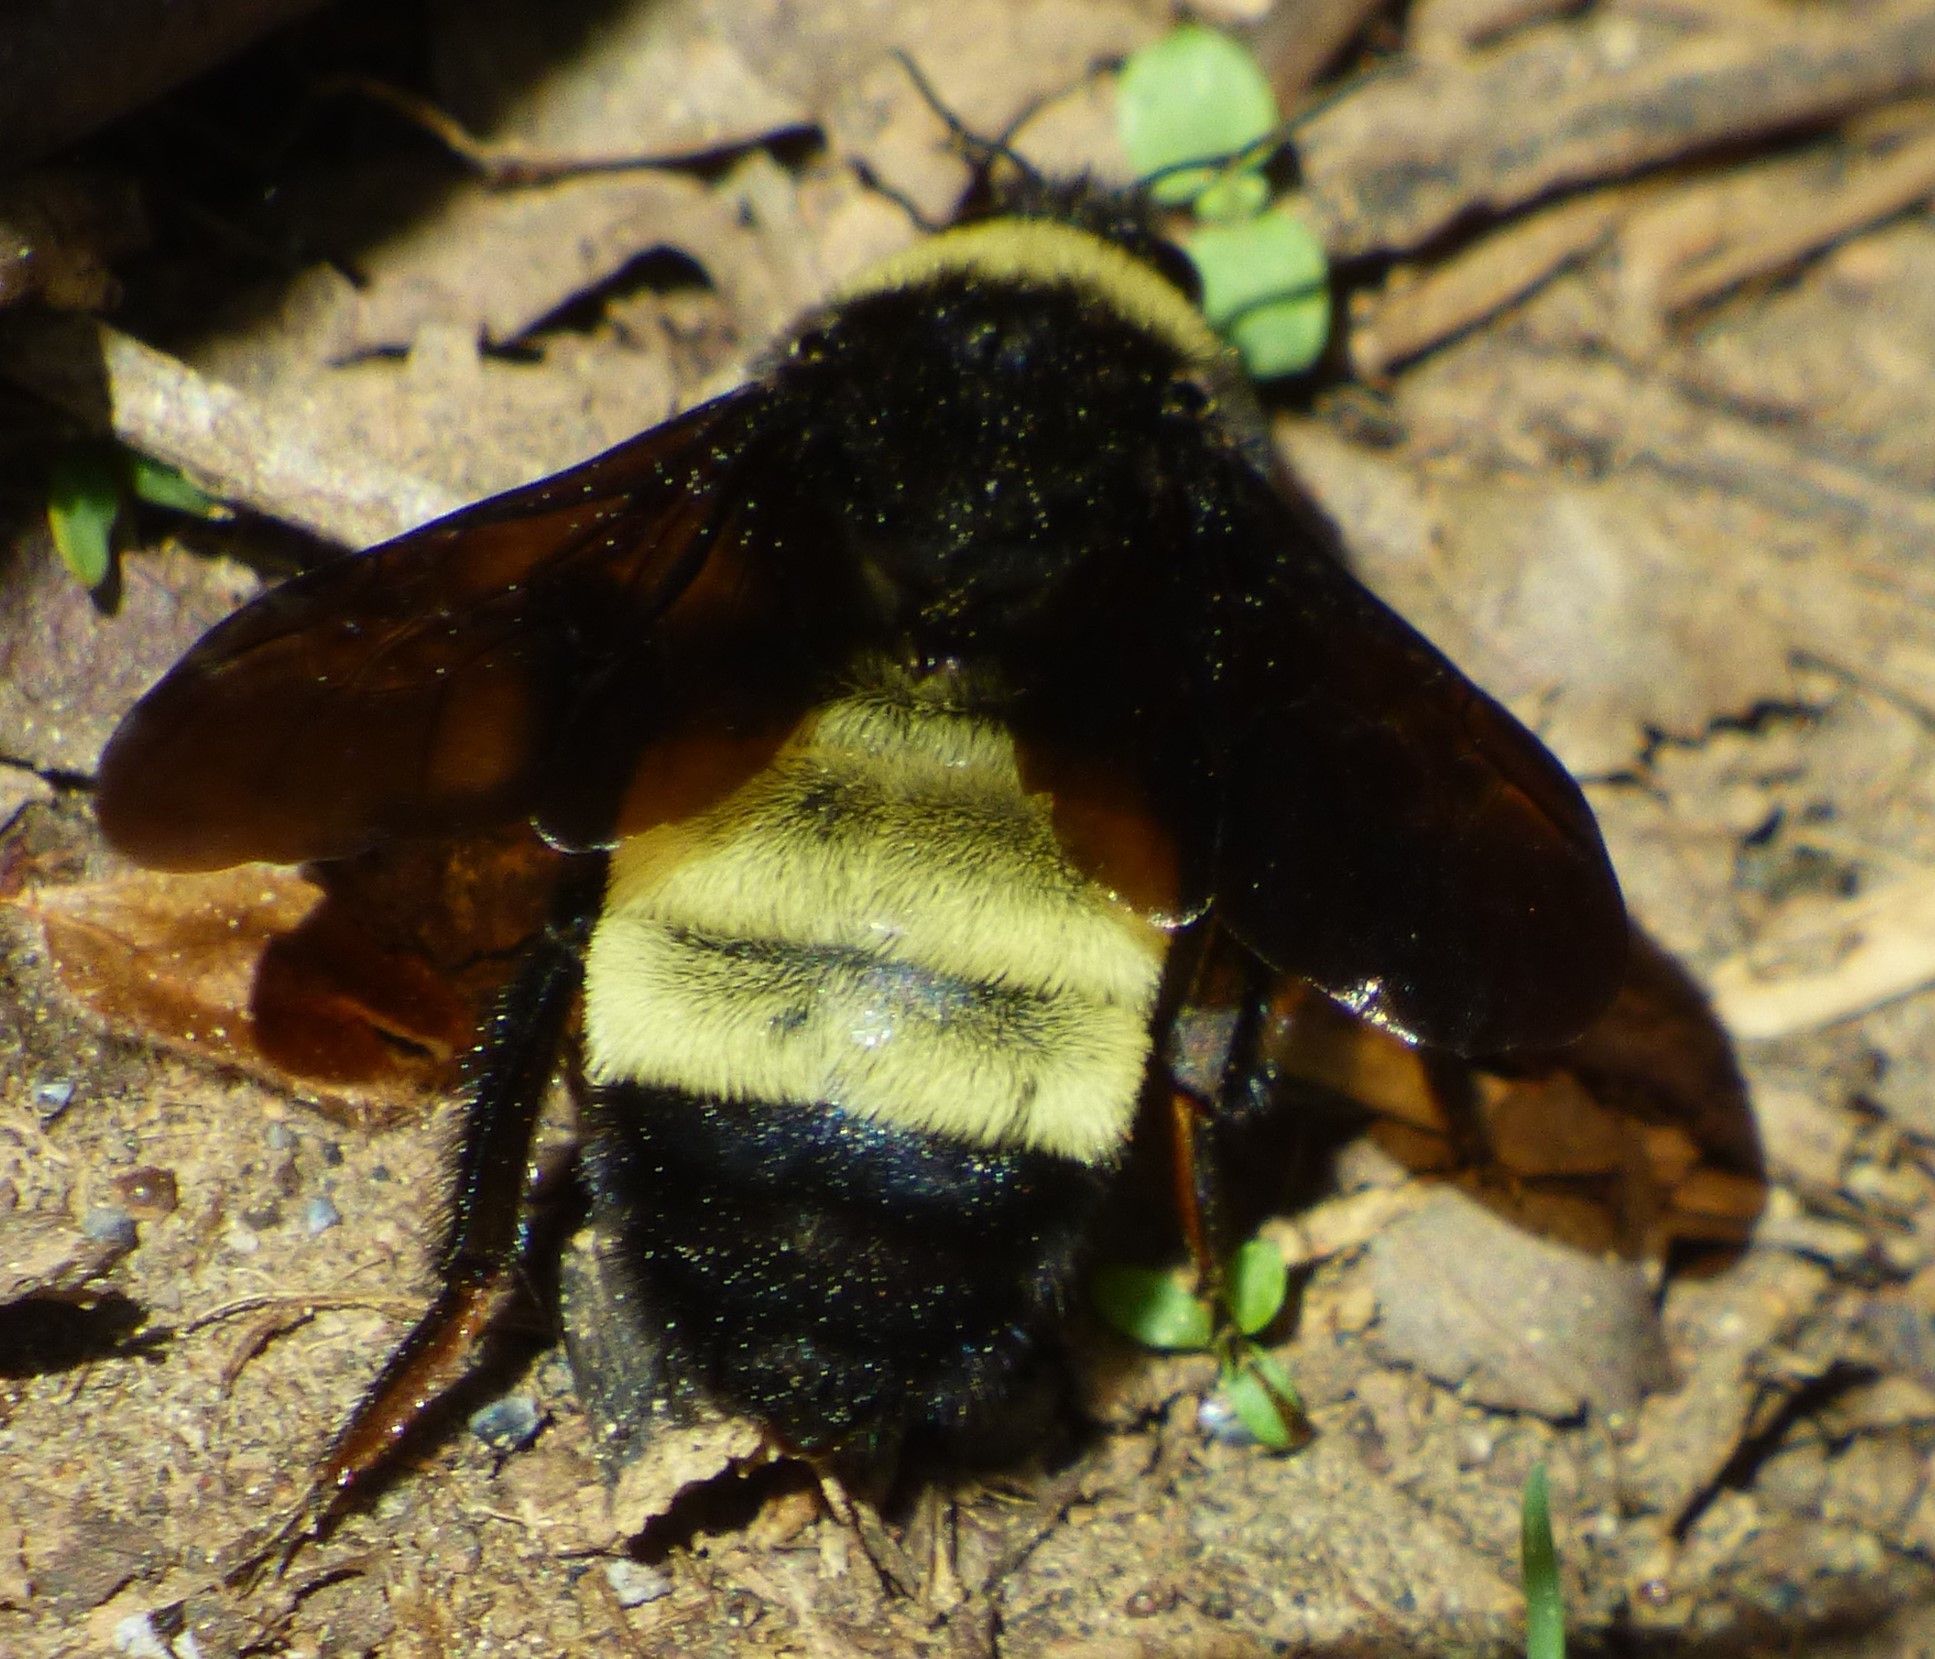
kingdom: Animalia
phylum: Arthropoda
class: Insecta
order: Hymenoptera
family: Apidae
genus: Bombus
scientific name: Bombus pensylvanicus
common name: Bumble bee
